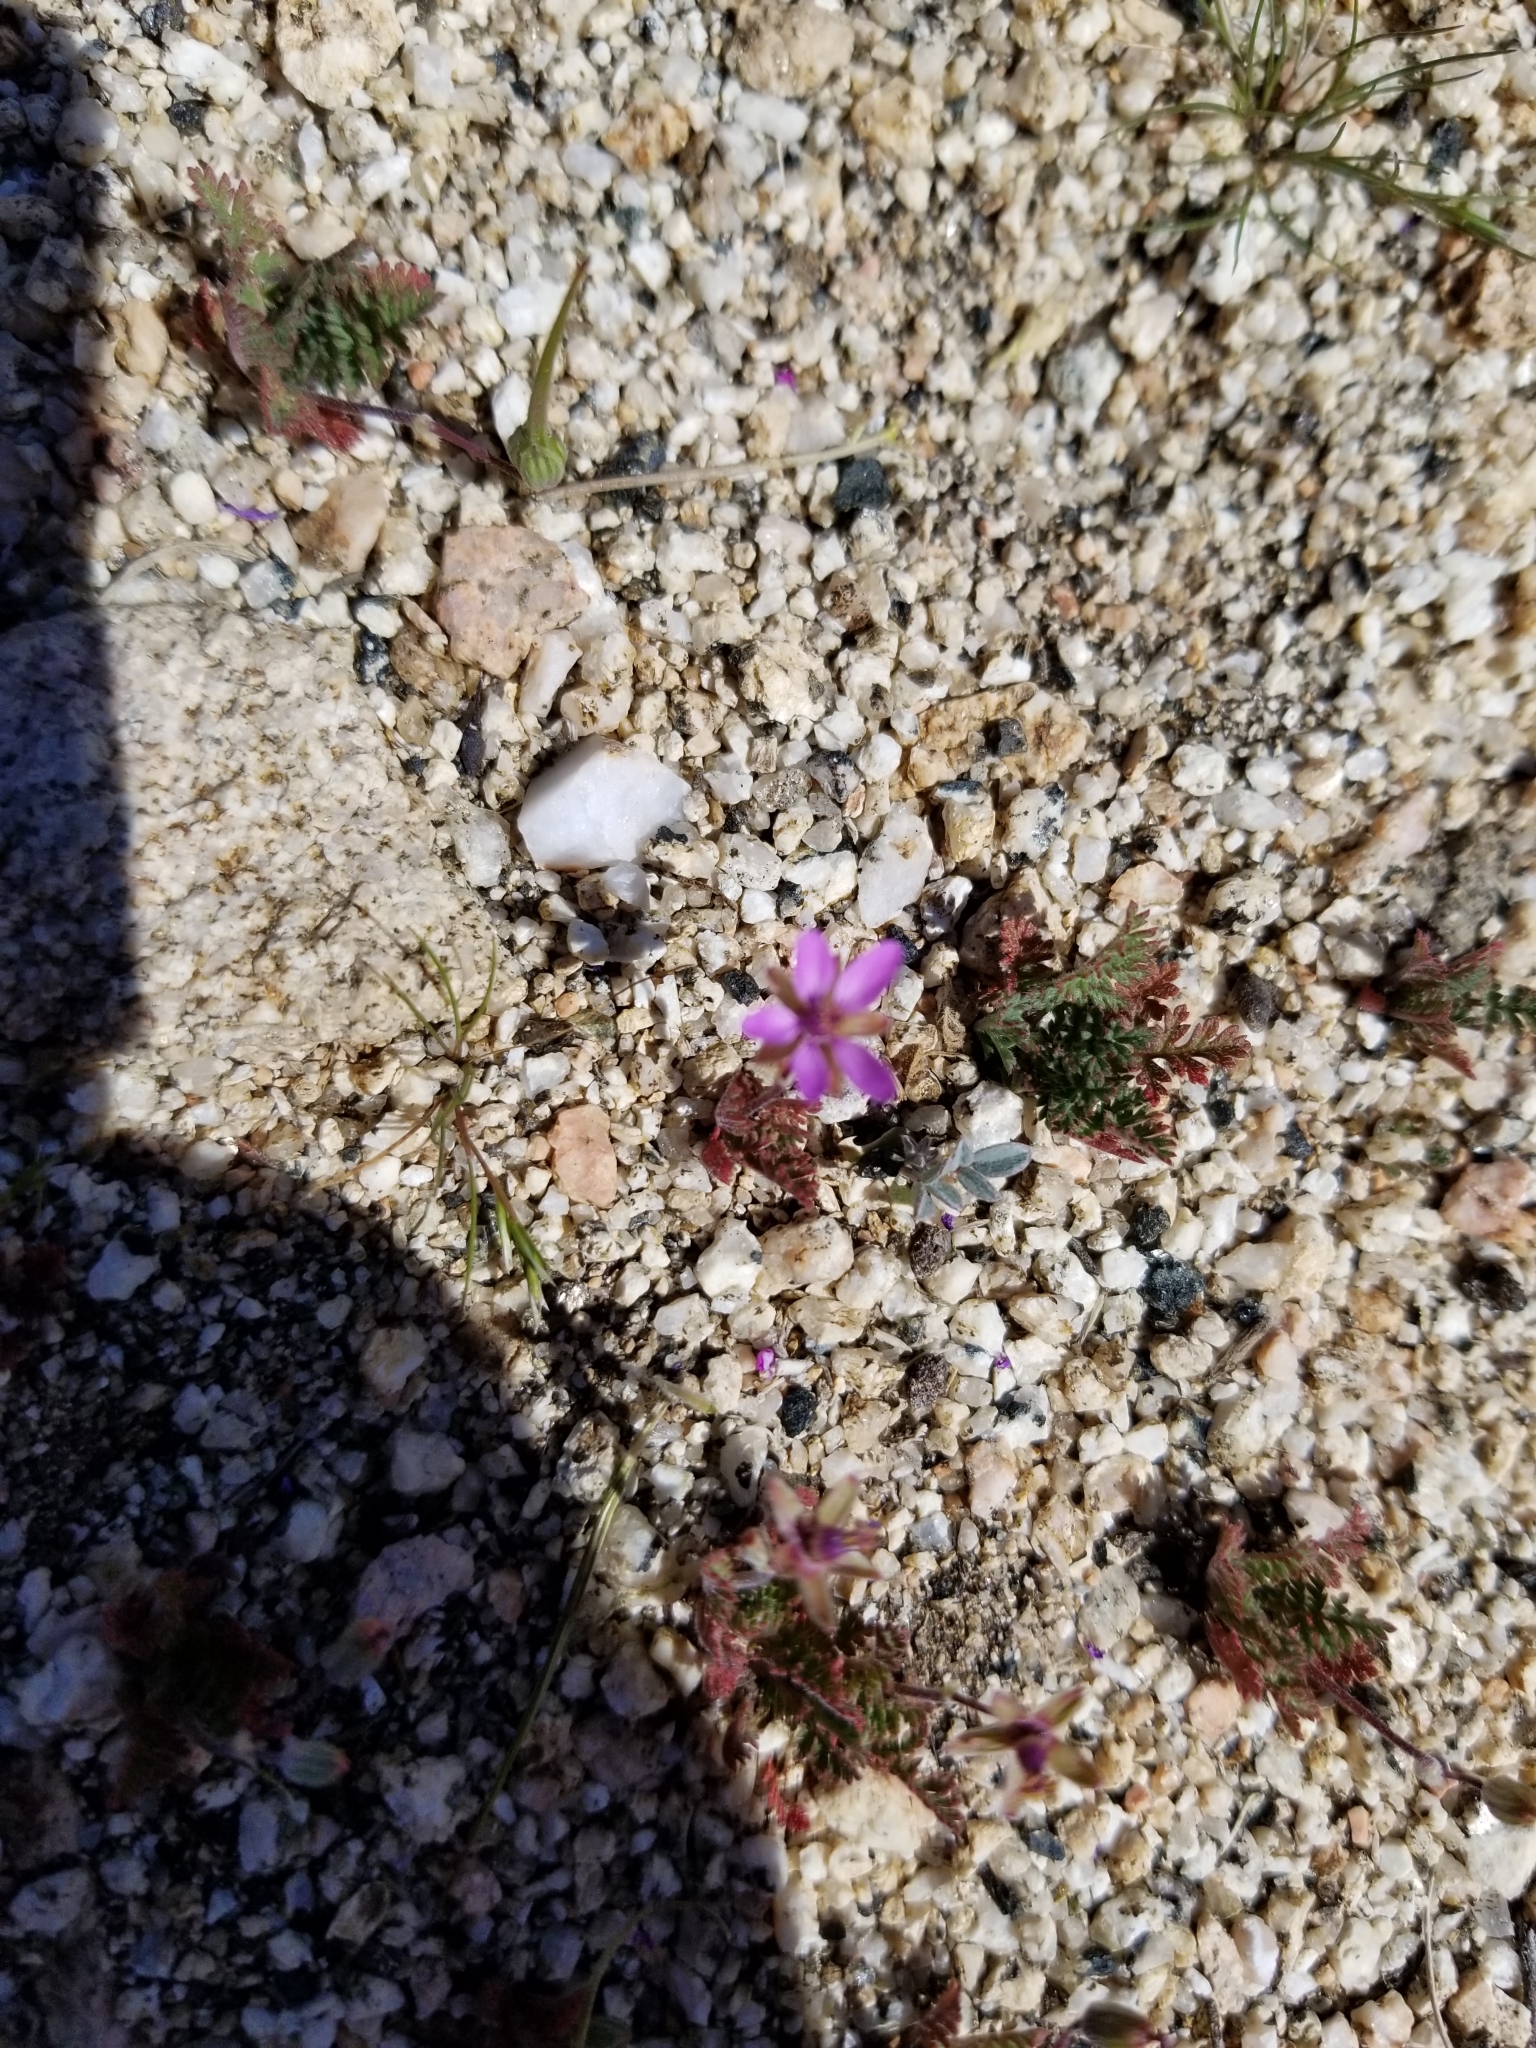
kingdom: Plantae
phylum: Tracheophyta
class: Magnoliopsida
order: Geraniales
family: Geraniaceae
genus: Erodium
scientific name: Erodium cicutarium
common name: Common stork's-bill
